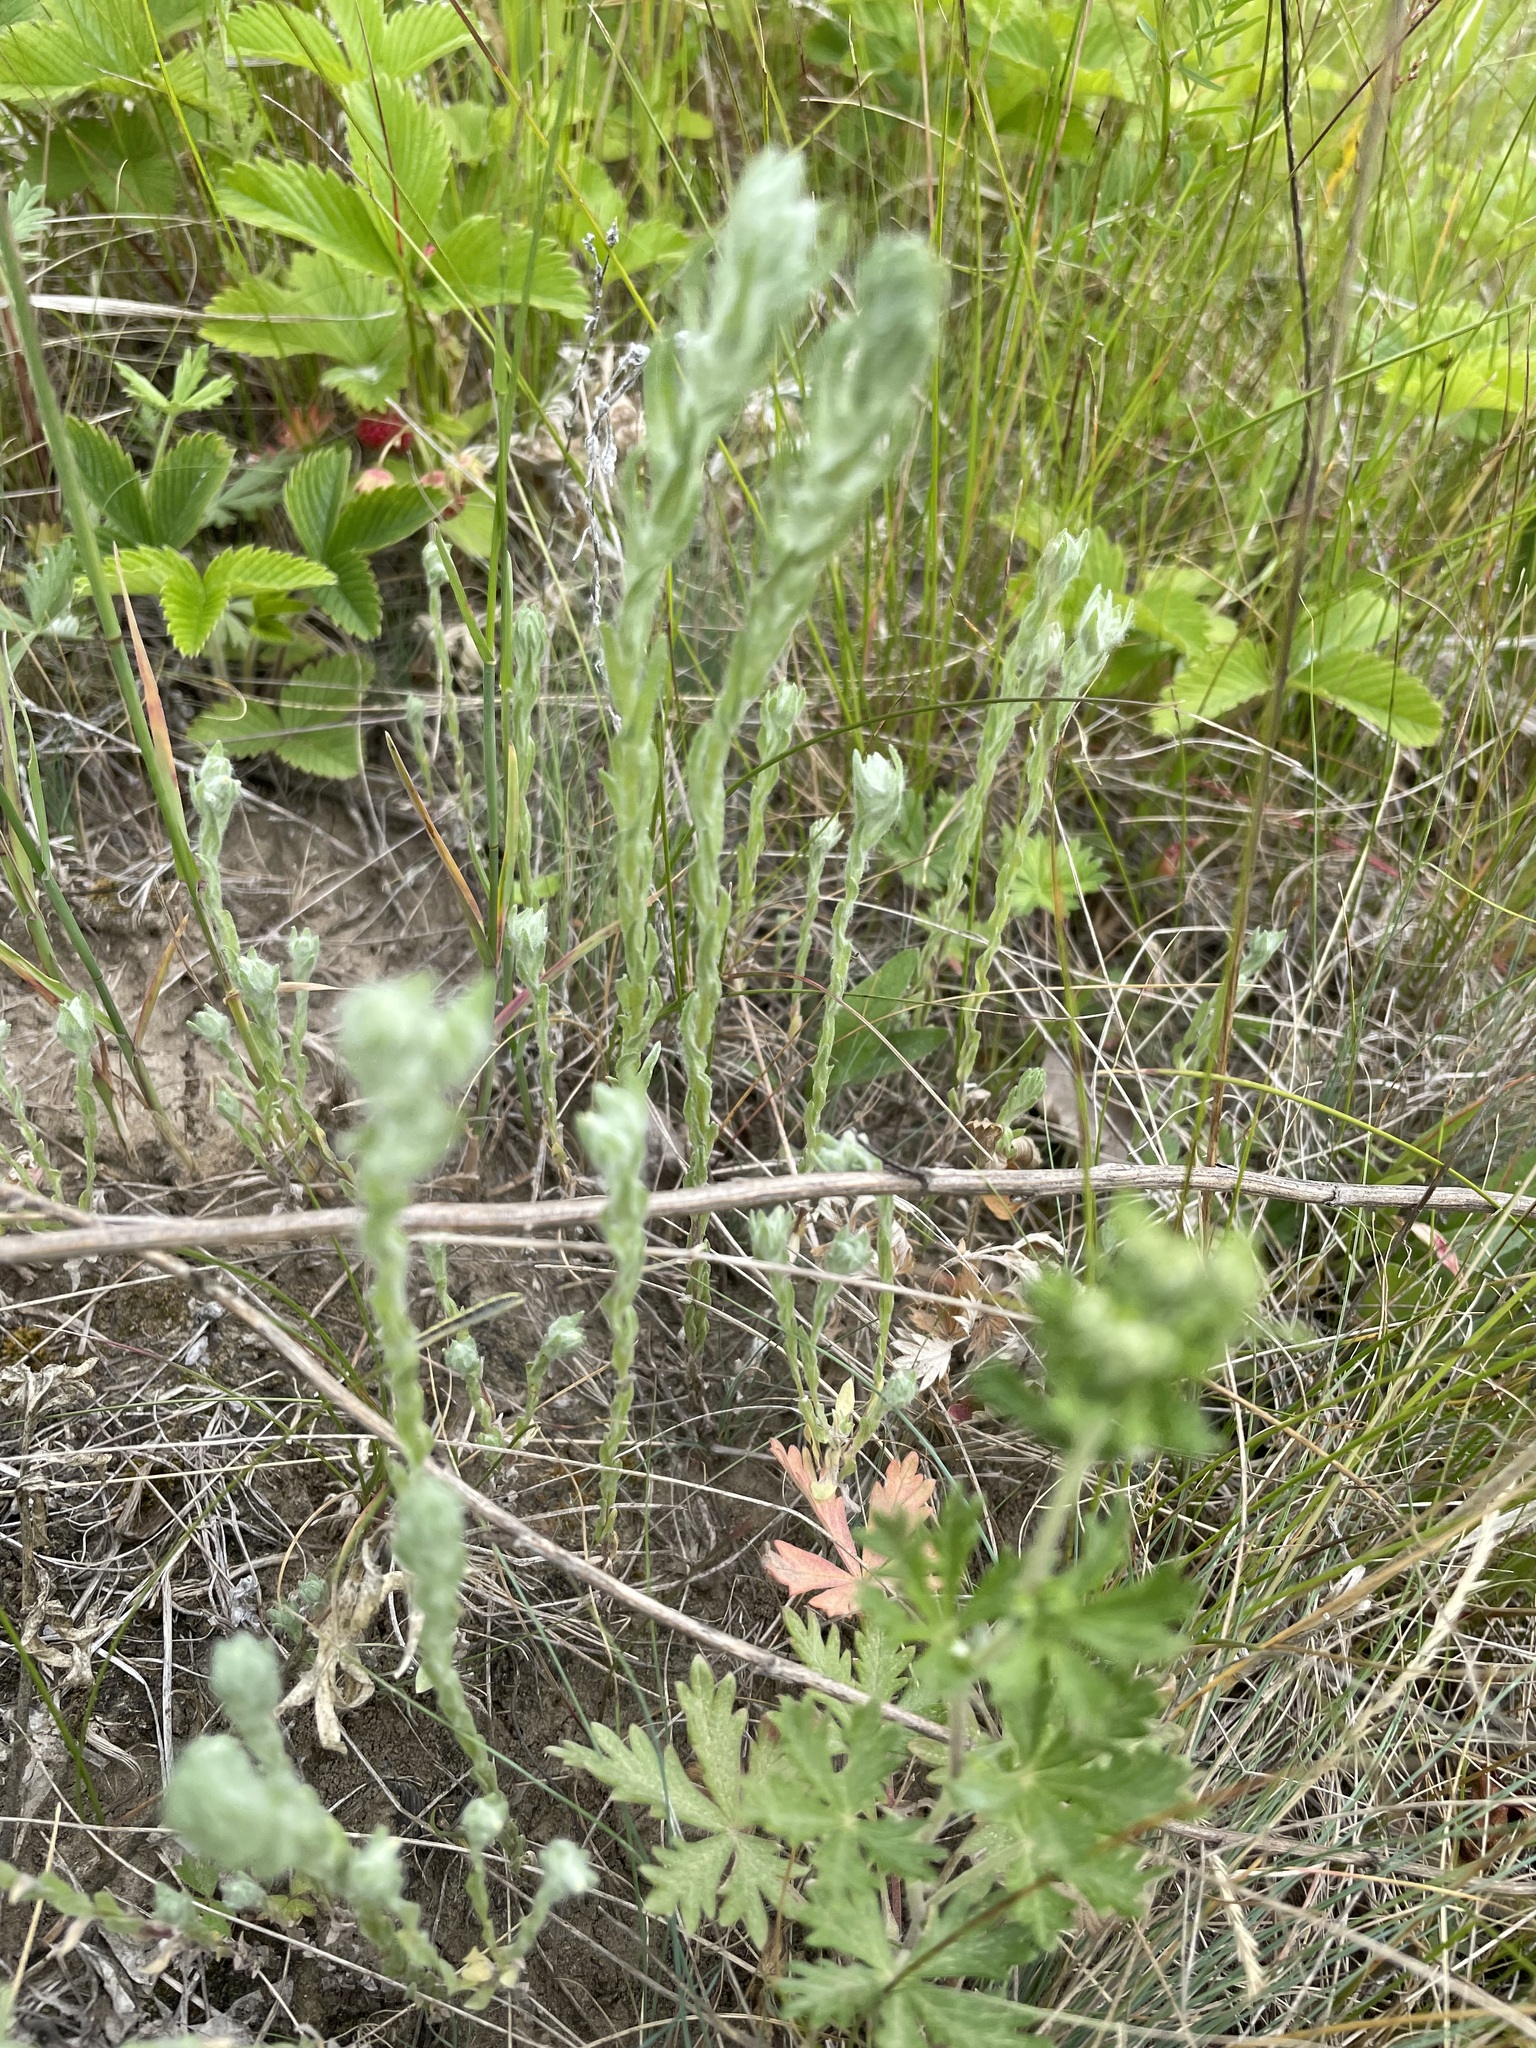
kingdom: Plantae
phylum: Tracheophyta
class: Magnoliopsida
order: Asterales
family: Asteraceae
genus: Filago
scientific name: Filago arvensis
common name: Field cudweed
